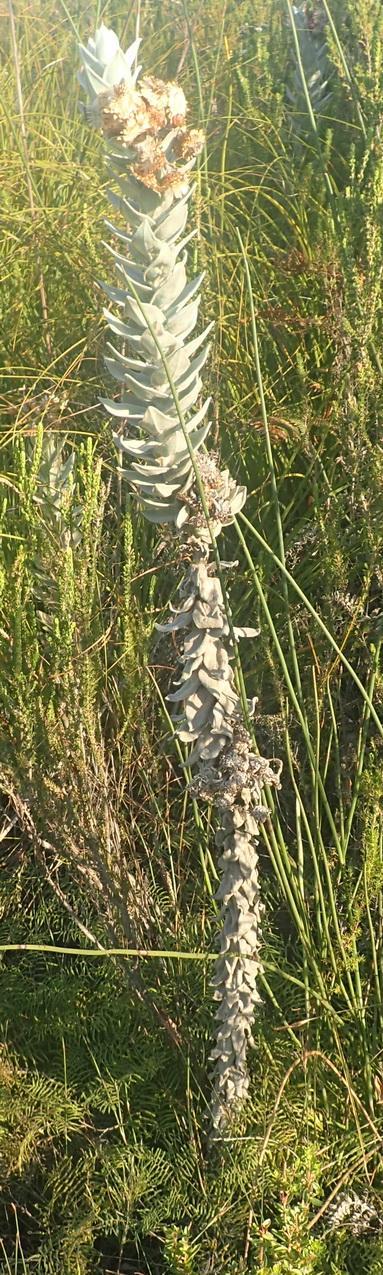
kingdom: Plantae
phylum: Tracheophyta
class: Magnoliopsida
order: Asterales
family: Asteraceae
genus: Syncarpha
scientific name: Syncarpha eximia
